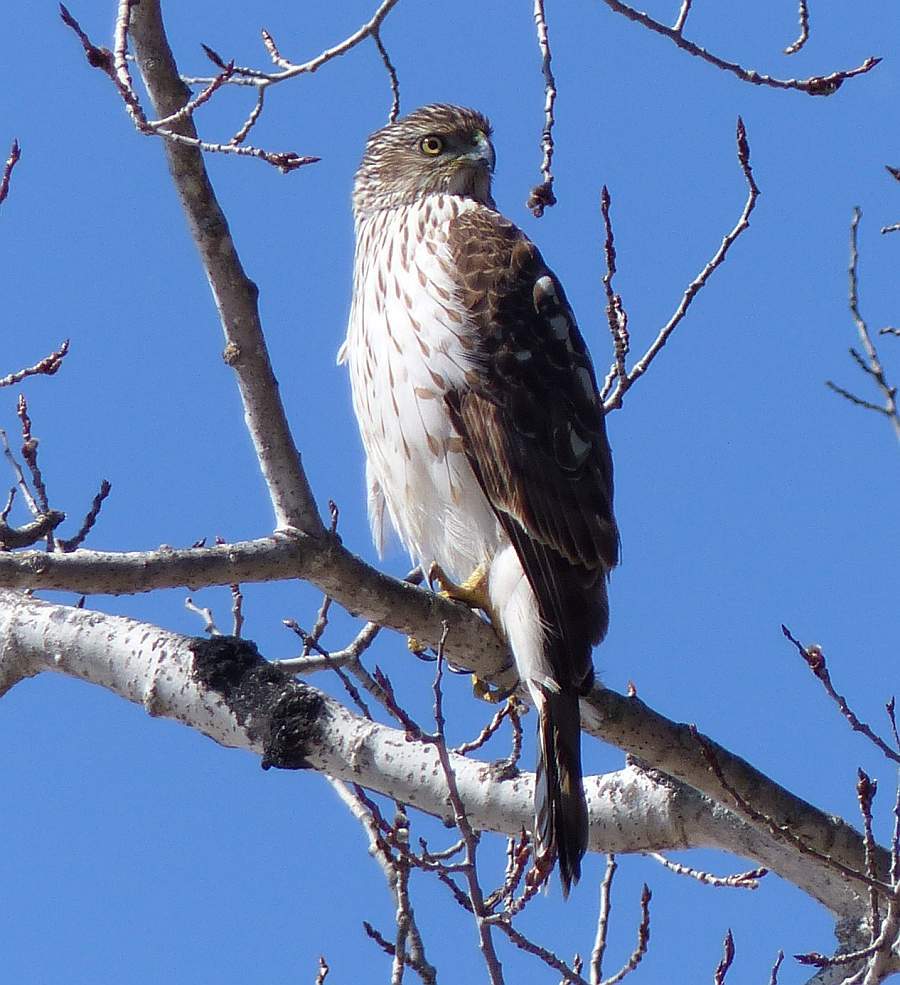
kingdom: Animalia
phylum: Chordata
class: Aves
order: Accipitriformes
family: Accipitridae
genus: Accipiter
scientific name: Accipiter cooperii
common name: Cooper's hawk
